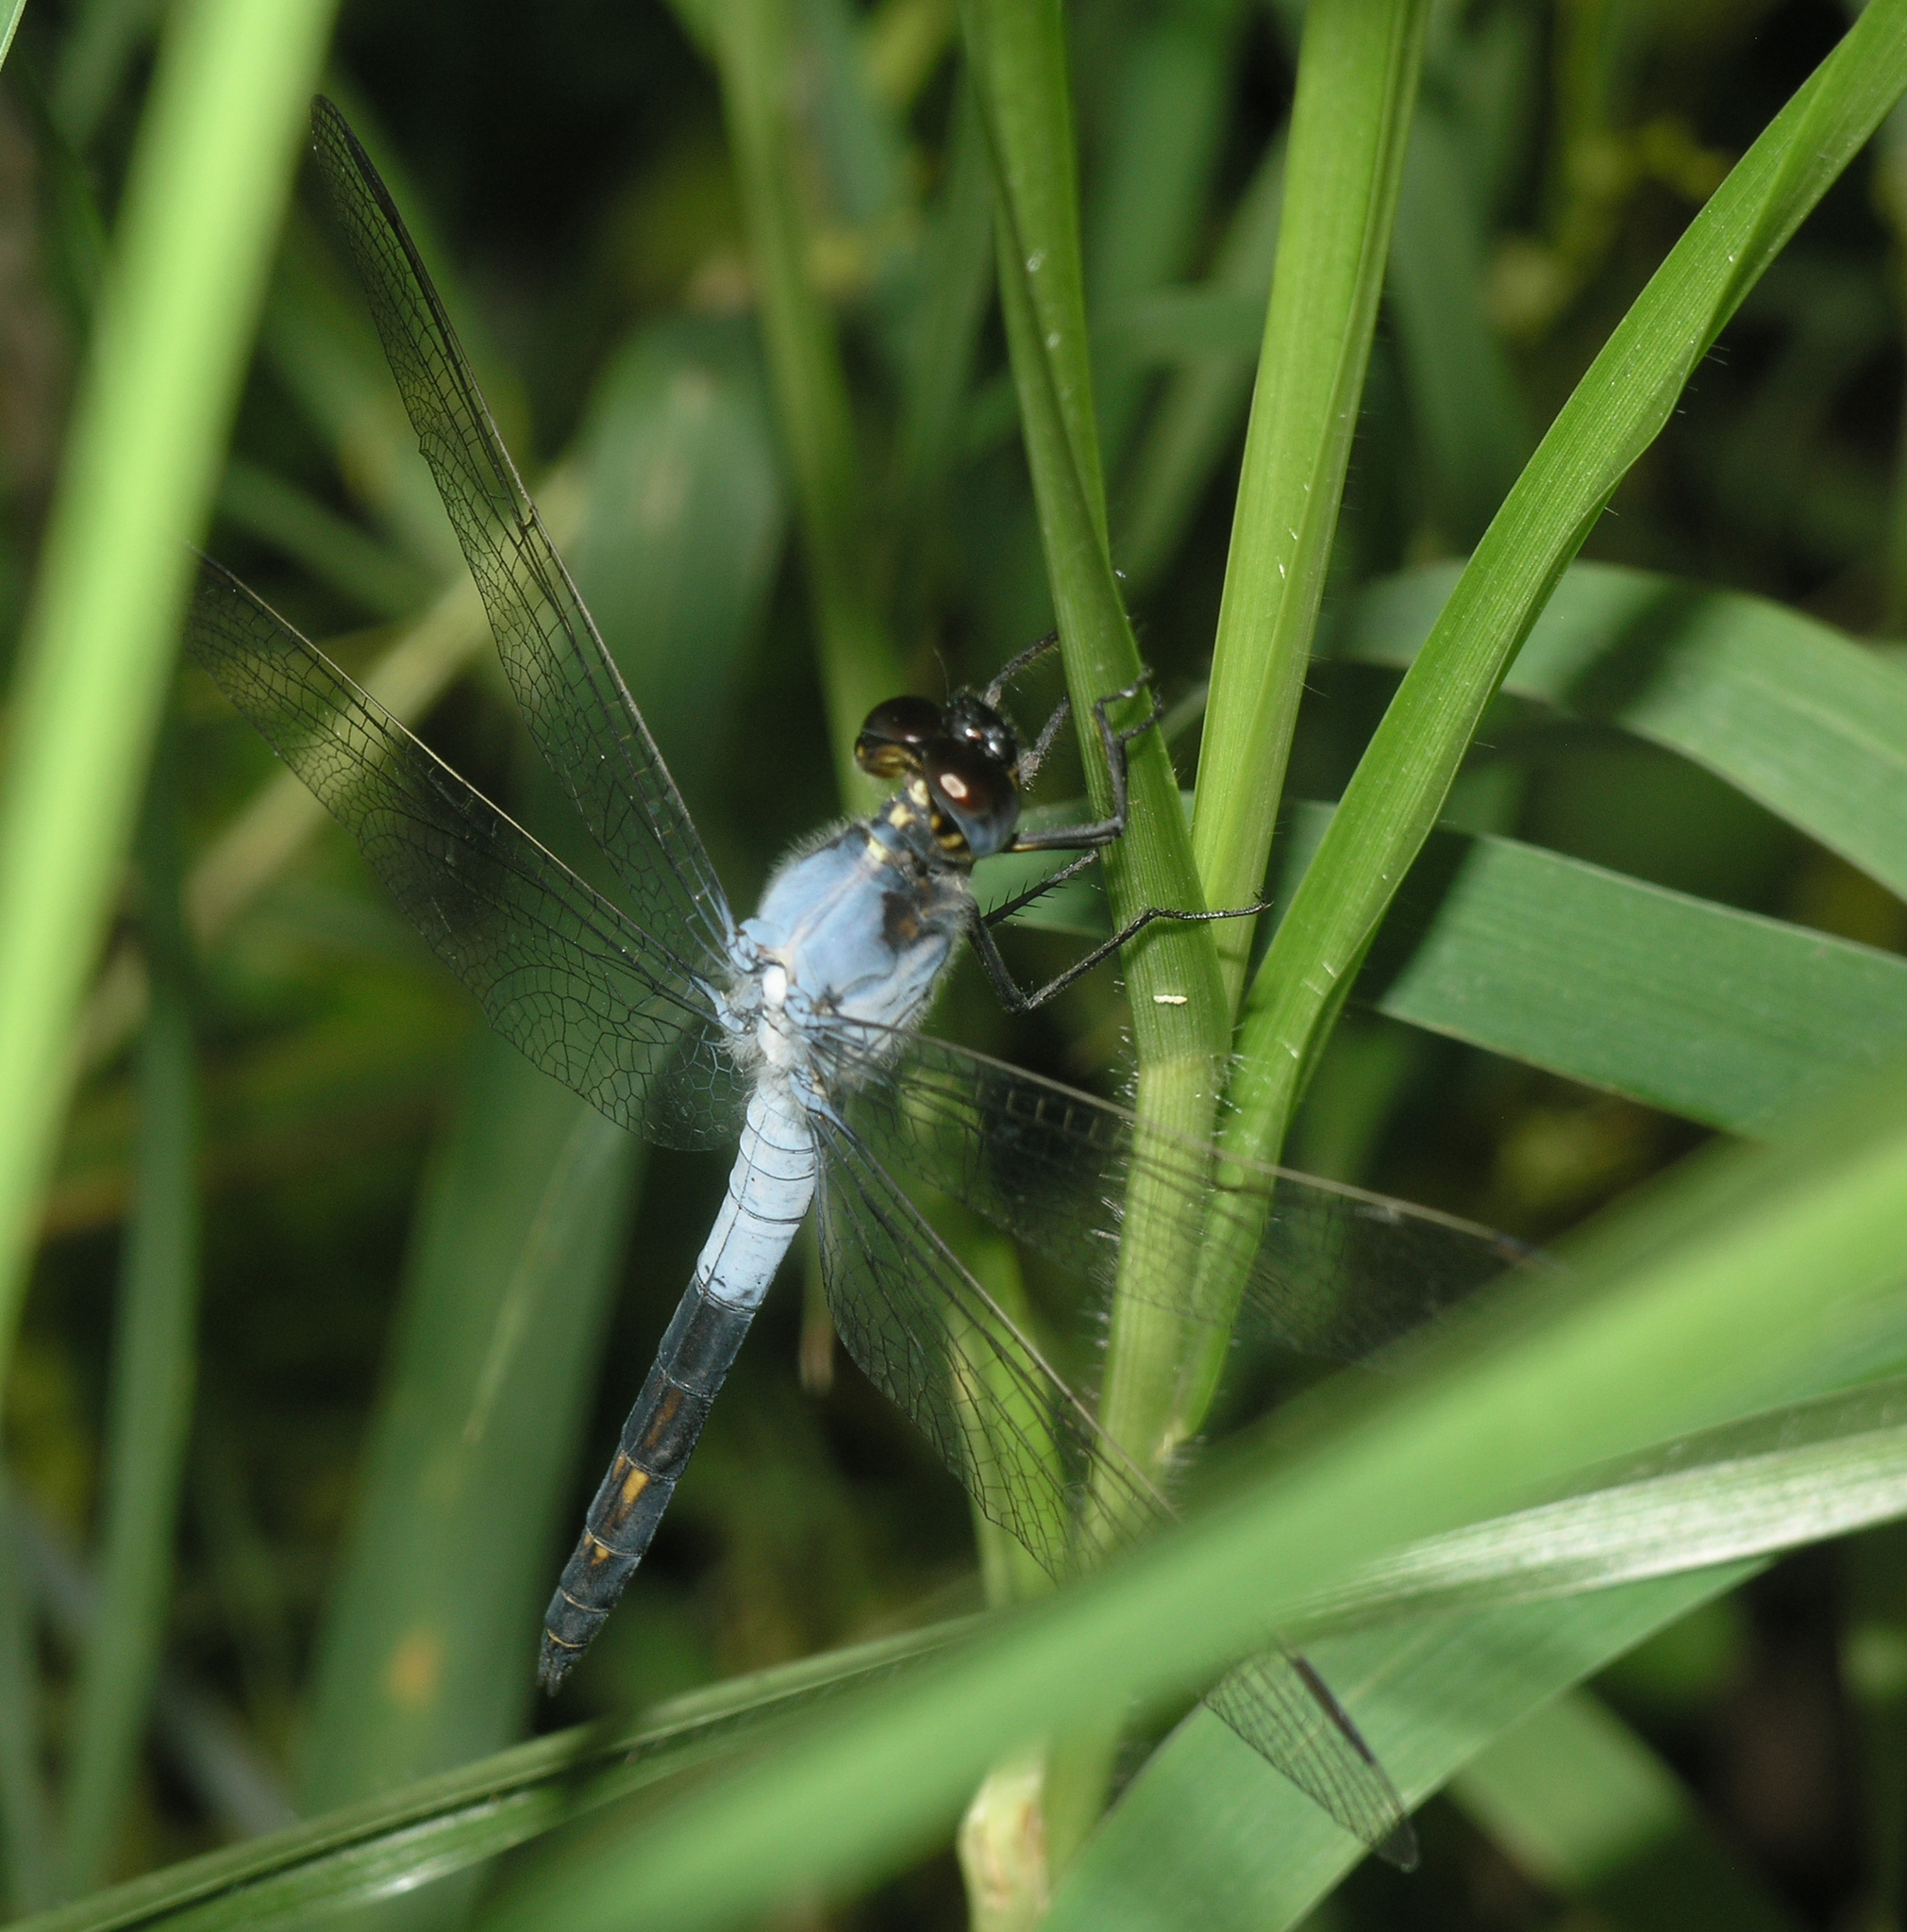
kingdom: Animalia
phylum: Arthropoda
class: Insecta
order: Odonata
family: Libellulidae
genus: Nesciothemis
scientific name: Nesciothemis farinosa
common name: Eastern blacktail
